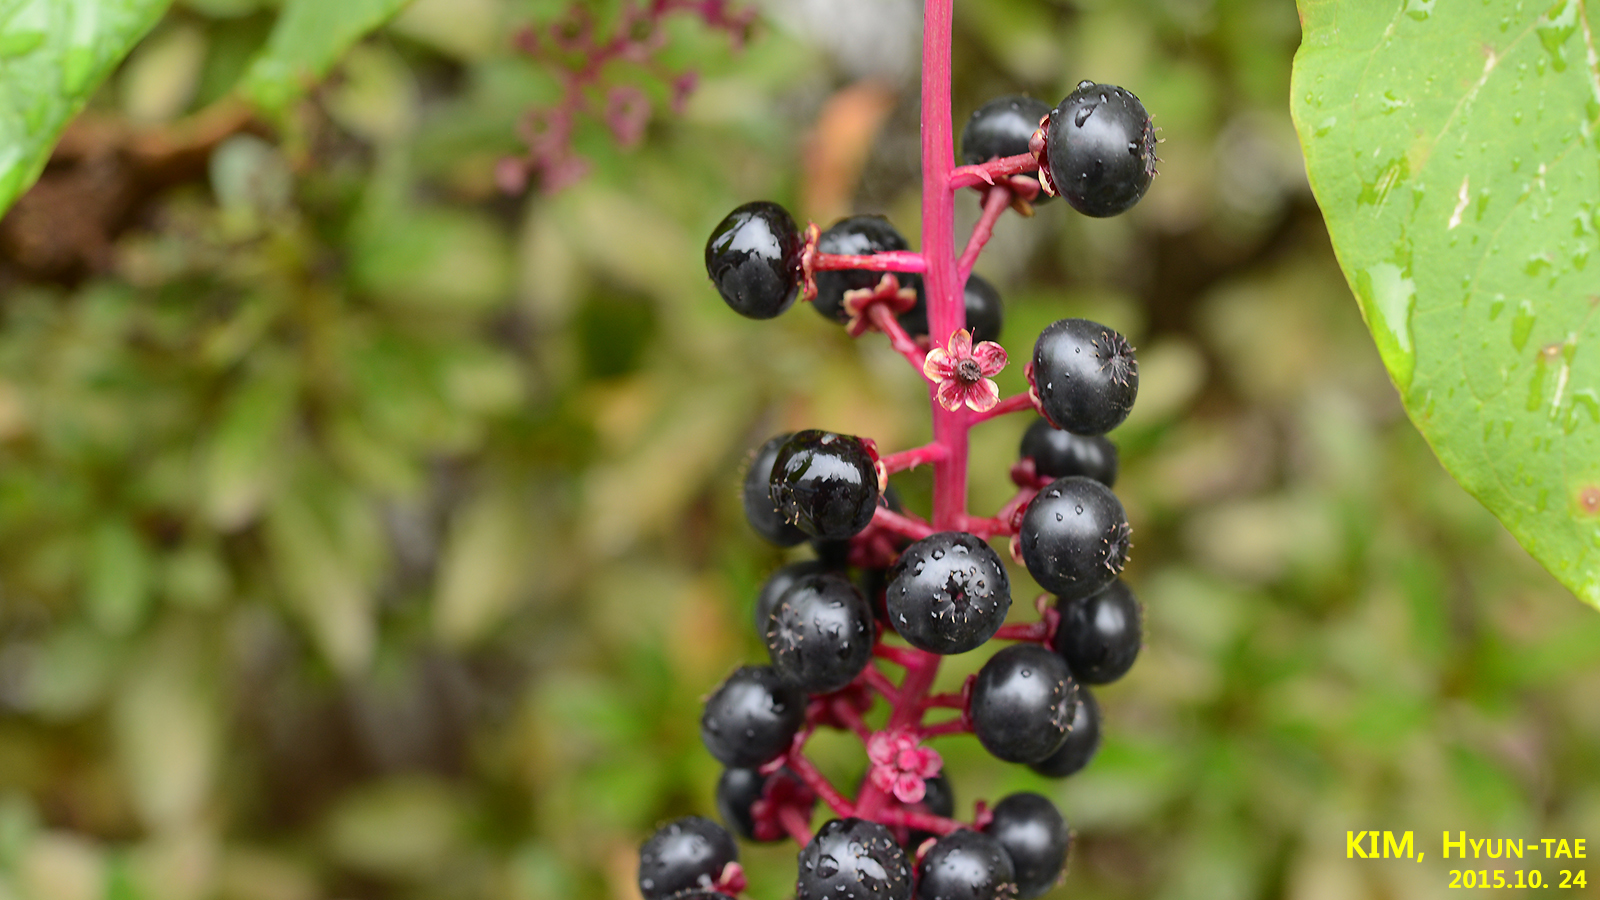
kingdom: Plantae
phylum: Tracheophyta
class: Magnoliopsida
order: Caryophyllales
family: Phytolaccaceae
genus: Phytolacca
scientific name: Phytolacca americana
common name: American pokeweed
